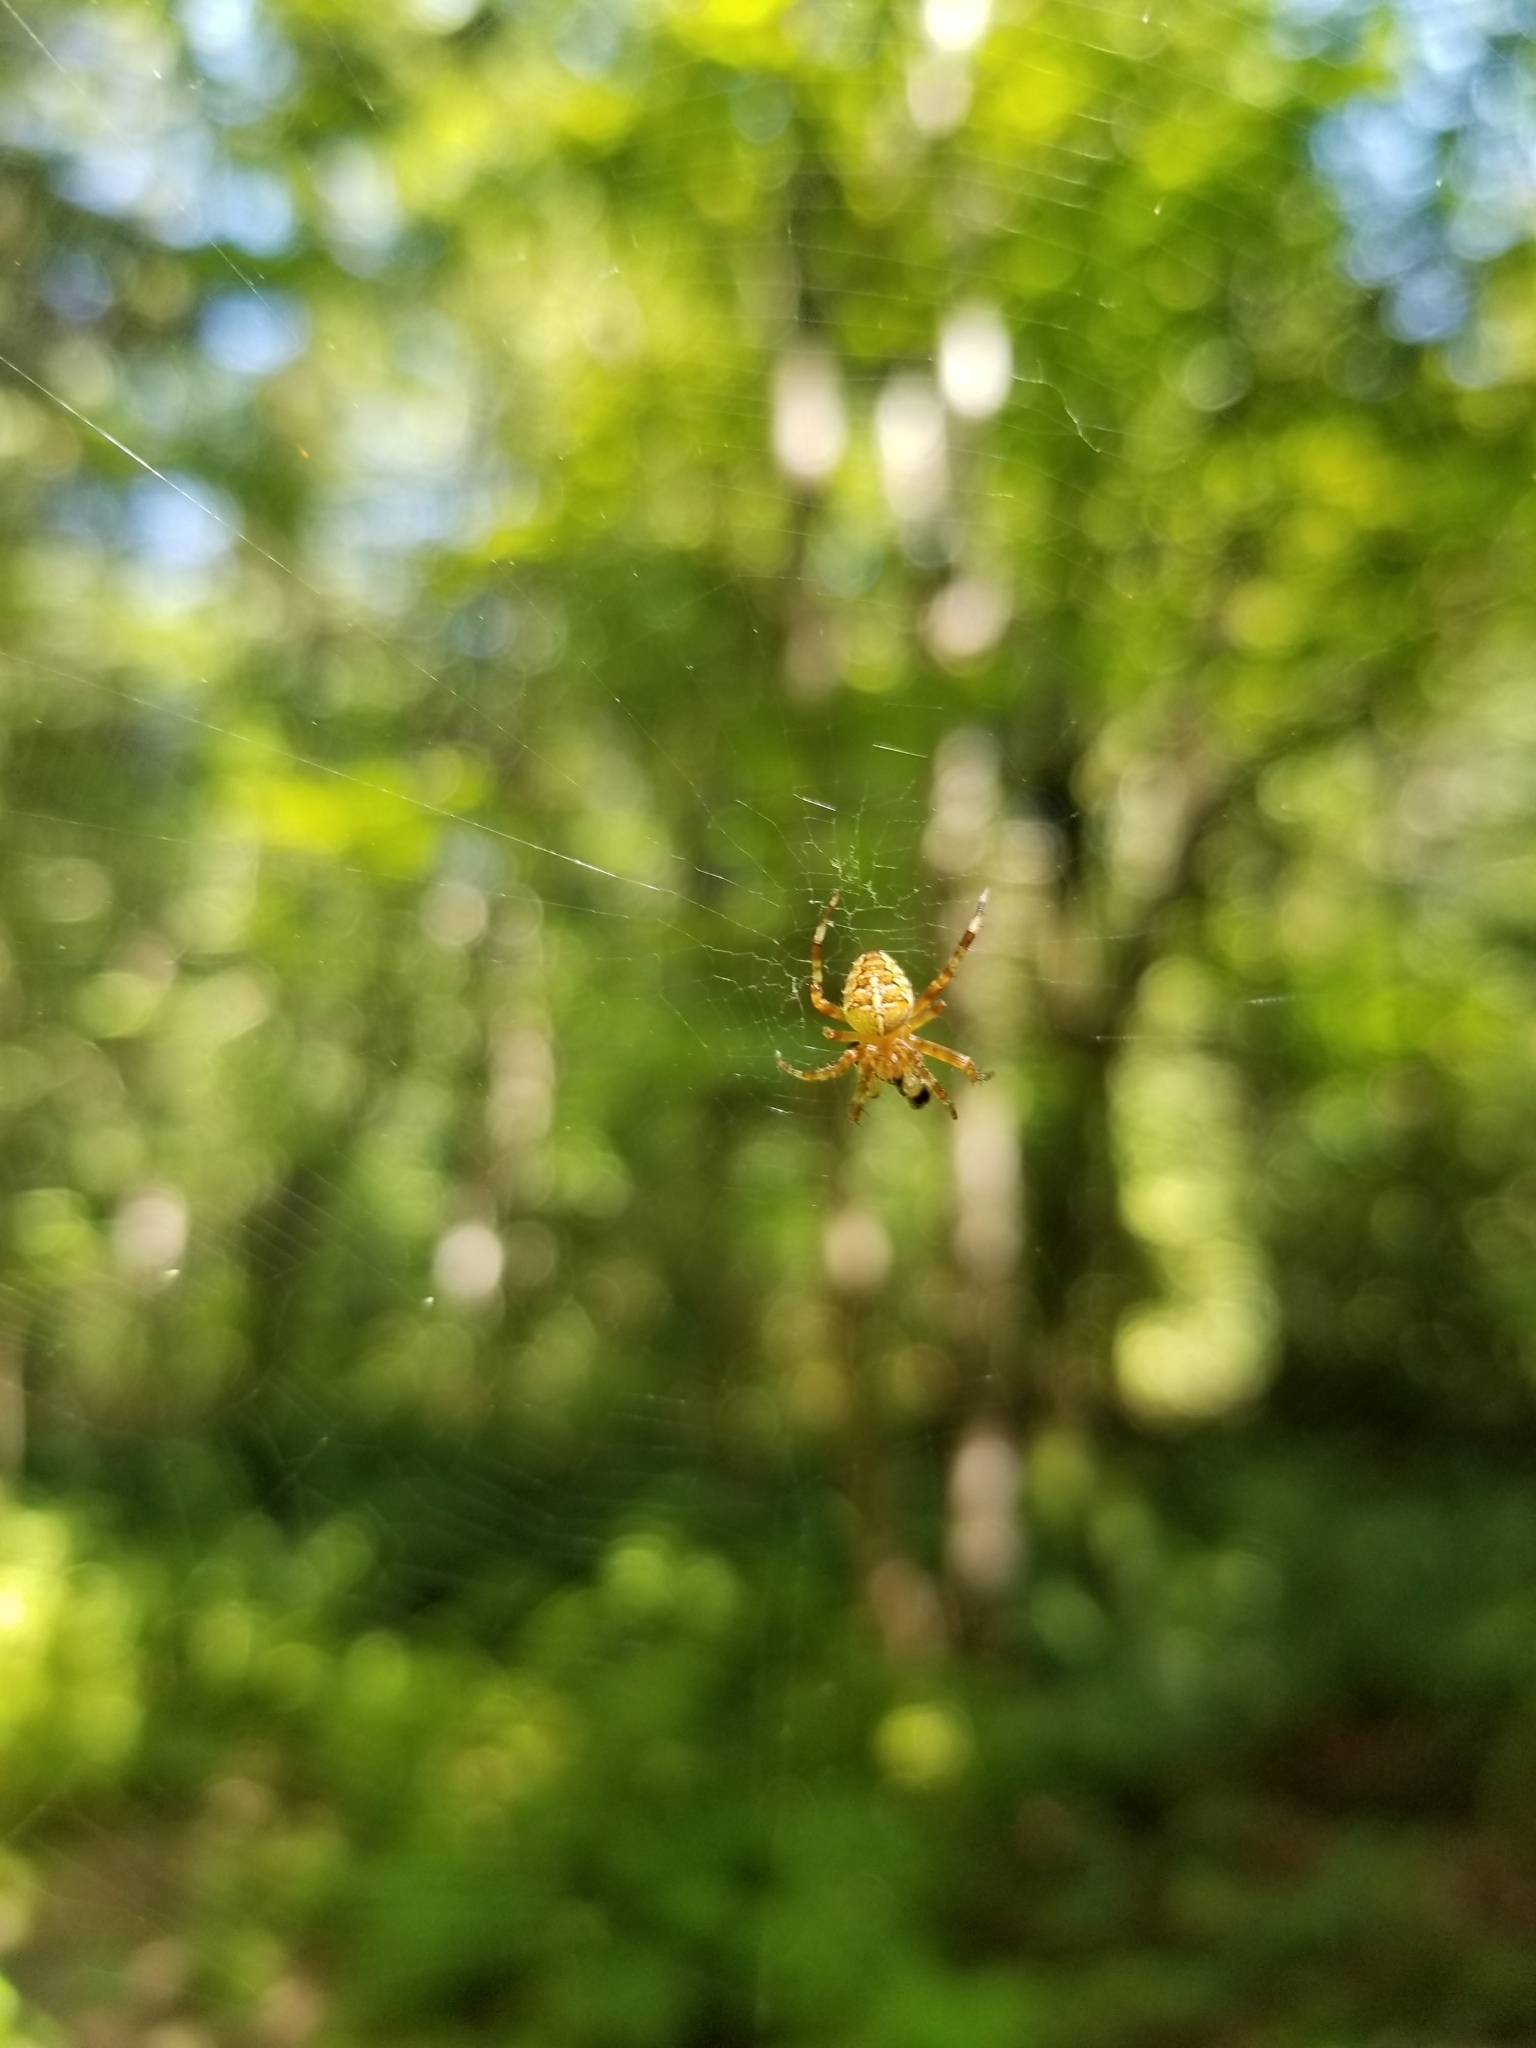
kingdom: Animalia
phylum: Arthropoda
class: Arachnida
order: Araneae
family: Araneidae
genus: Araneus
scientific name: Araneus diadematus
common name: Cross orbweaver
